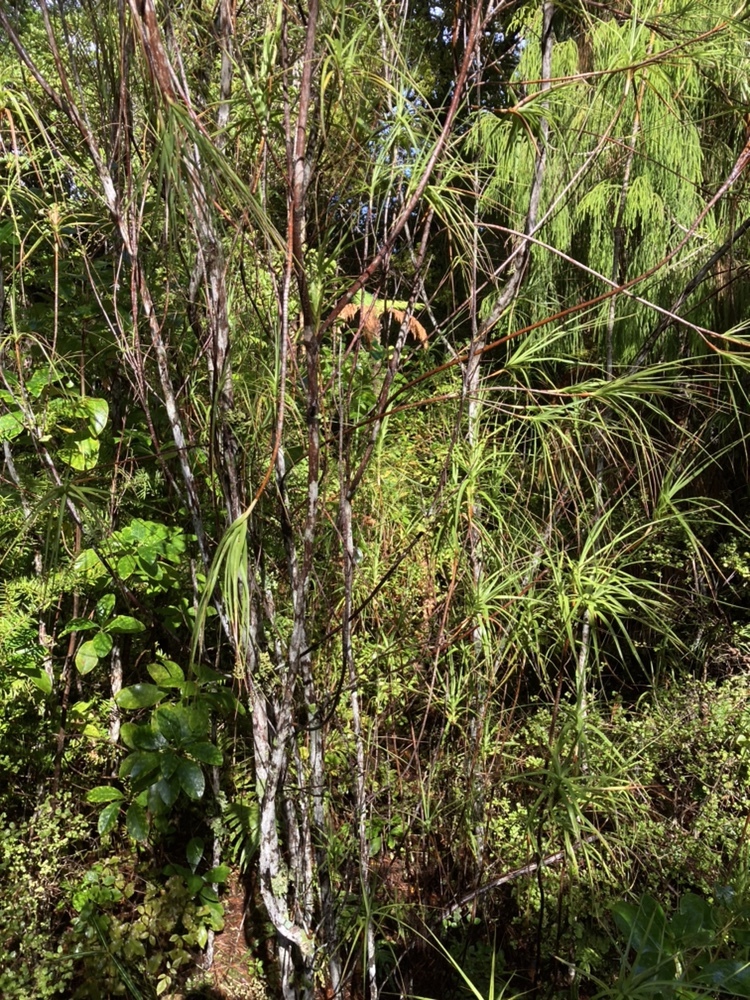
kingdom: Plantae
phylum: Tracheophyta
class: Magnoliopsida
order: Ericales
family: Ericaceae
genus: Dracophyllum
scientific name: Dracophyllum longifolium
